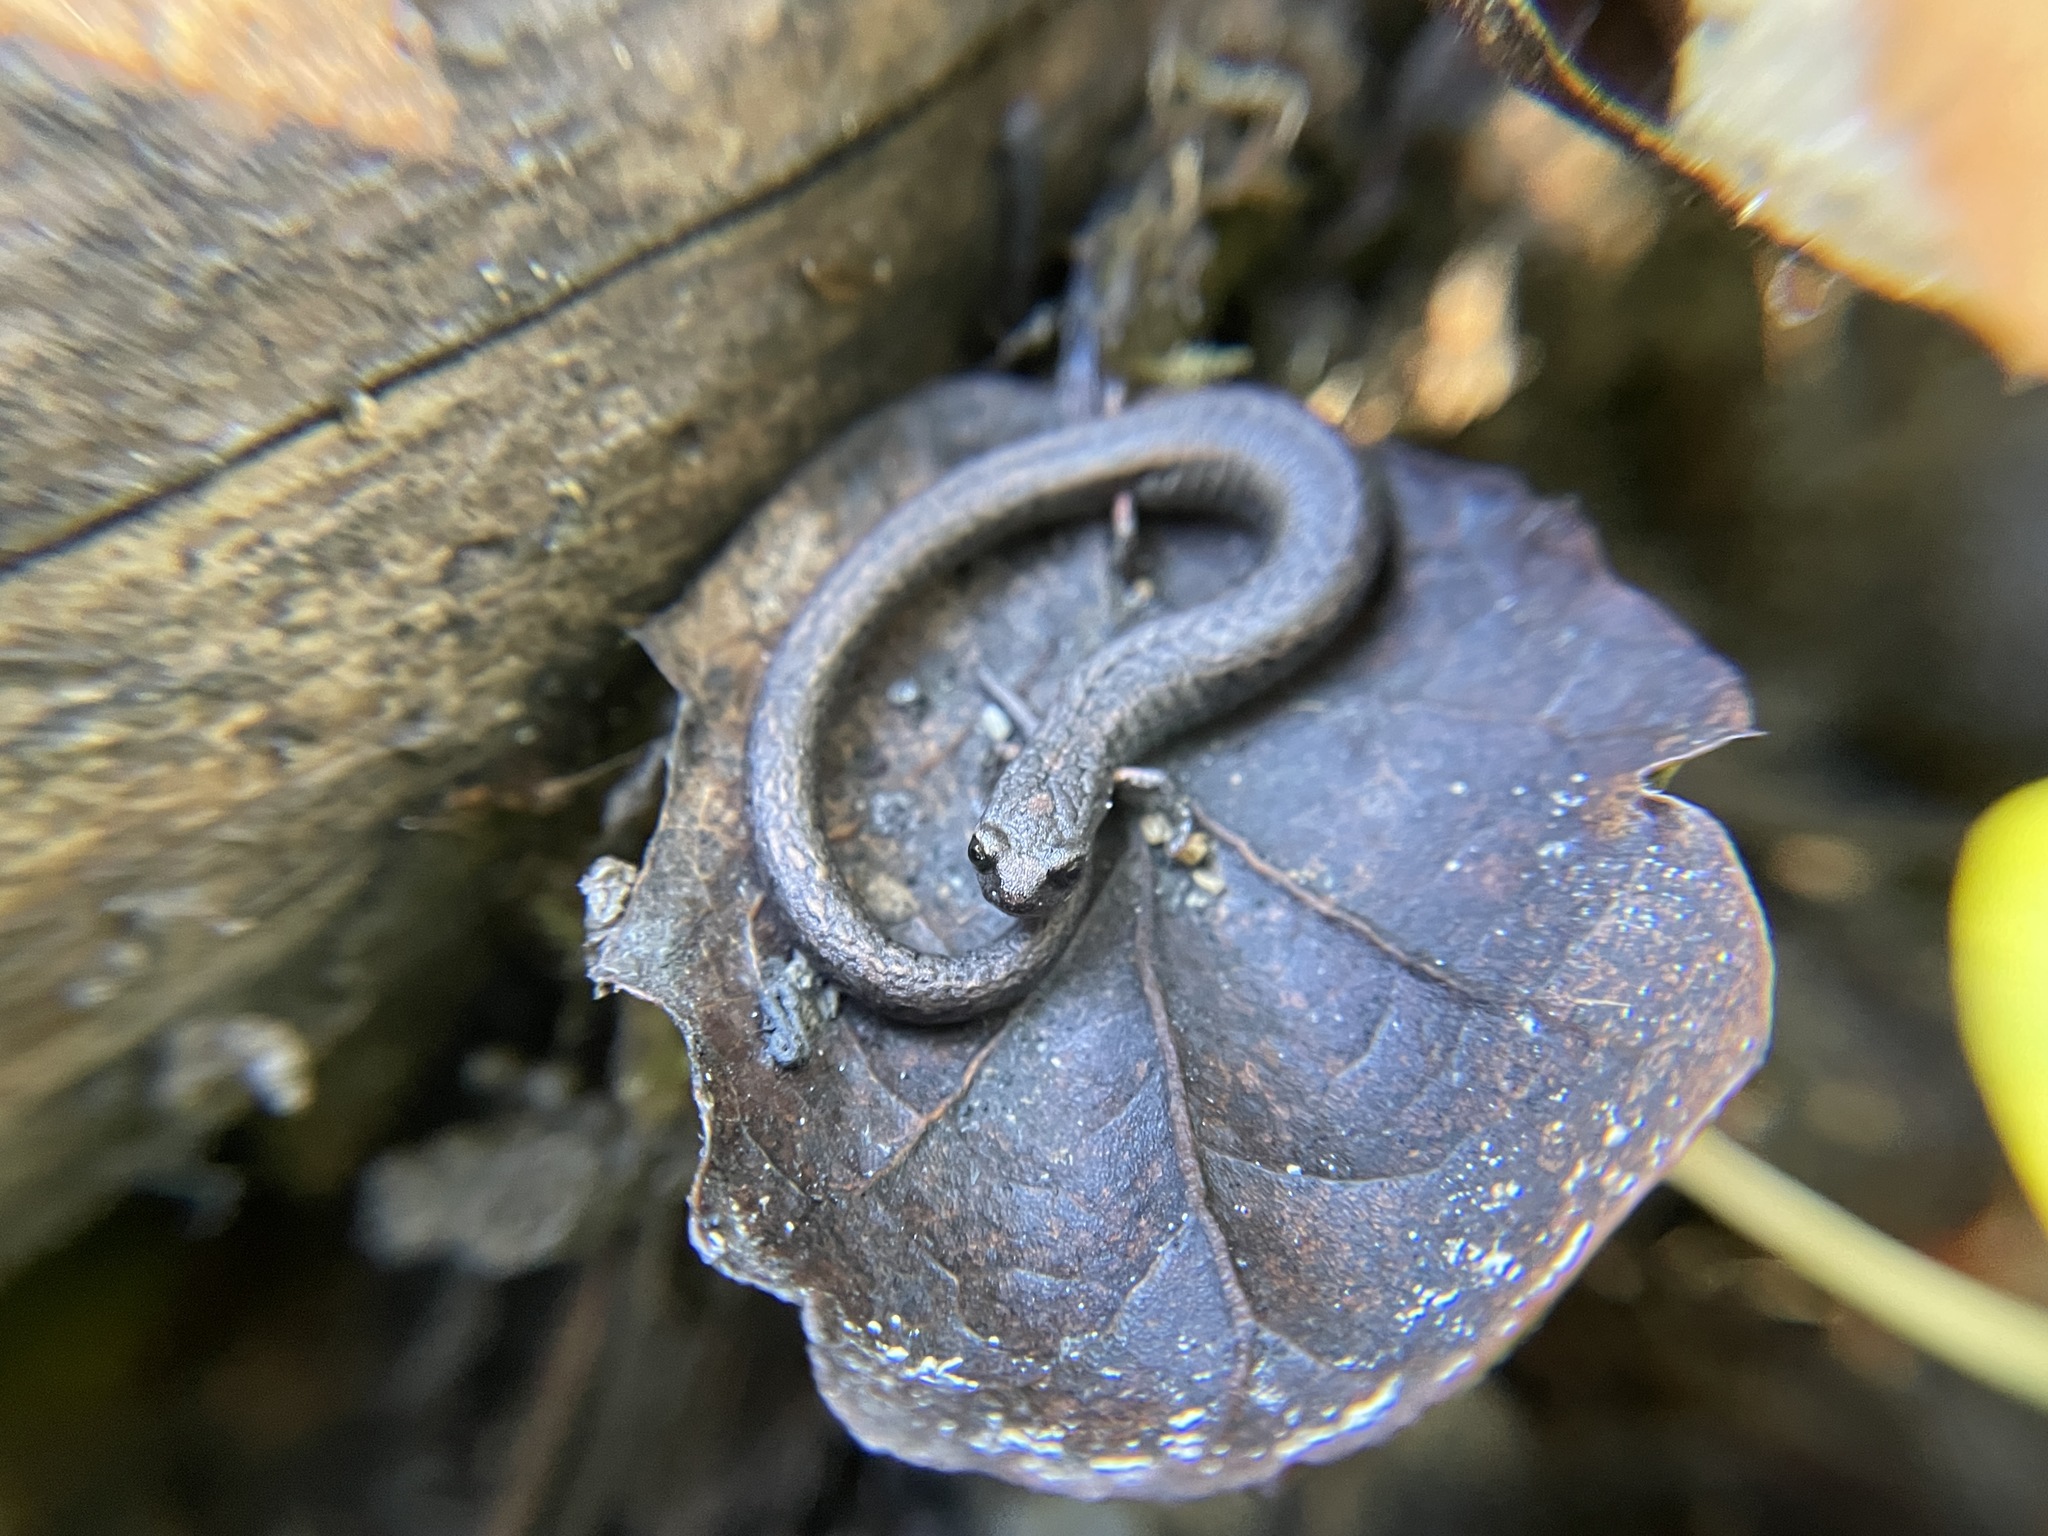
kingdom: Animalia
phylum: Chordata
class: Amphibia
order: Caudata
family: Plethodontidae
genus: Batrachoseps
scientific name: Batrachoseps attenuatus
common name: California slender salamander
